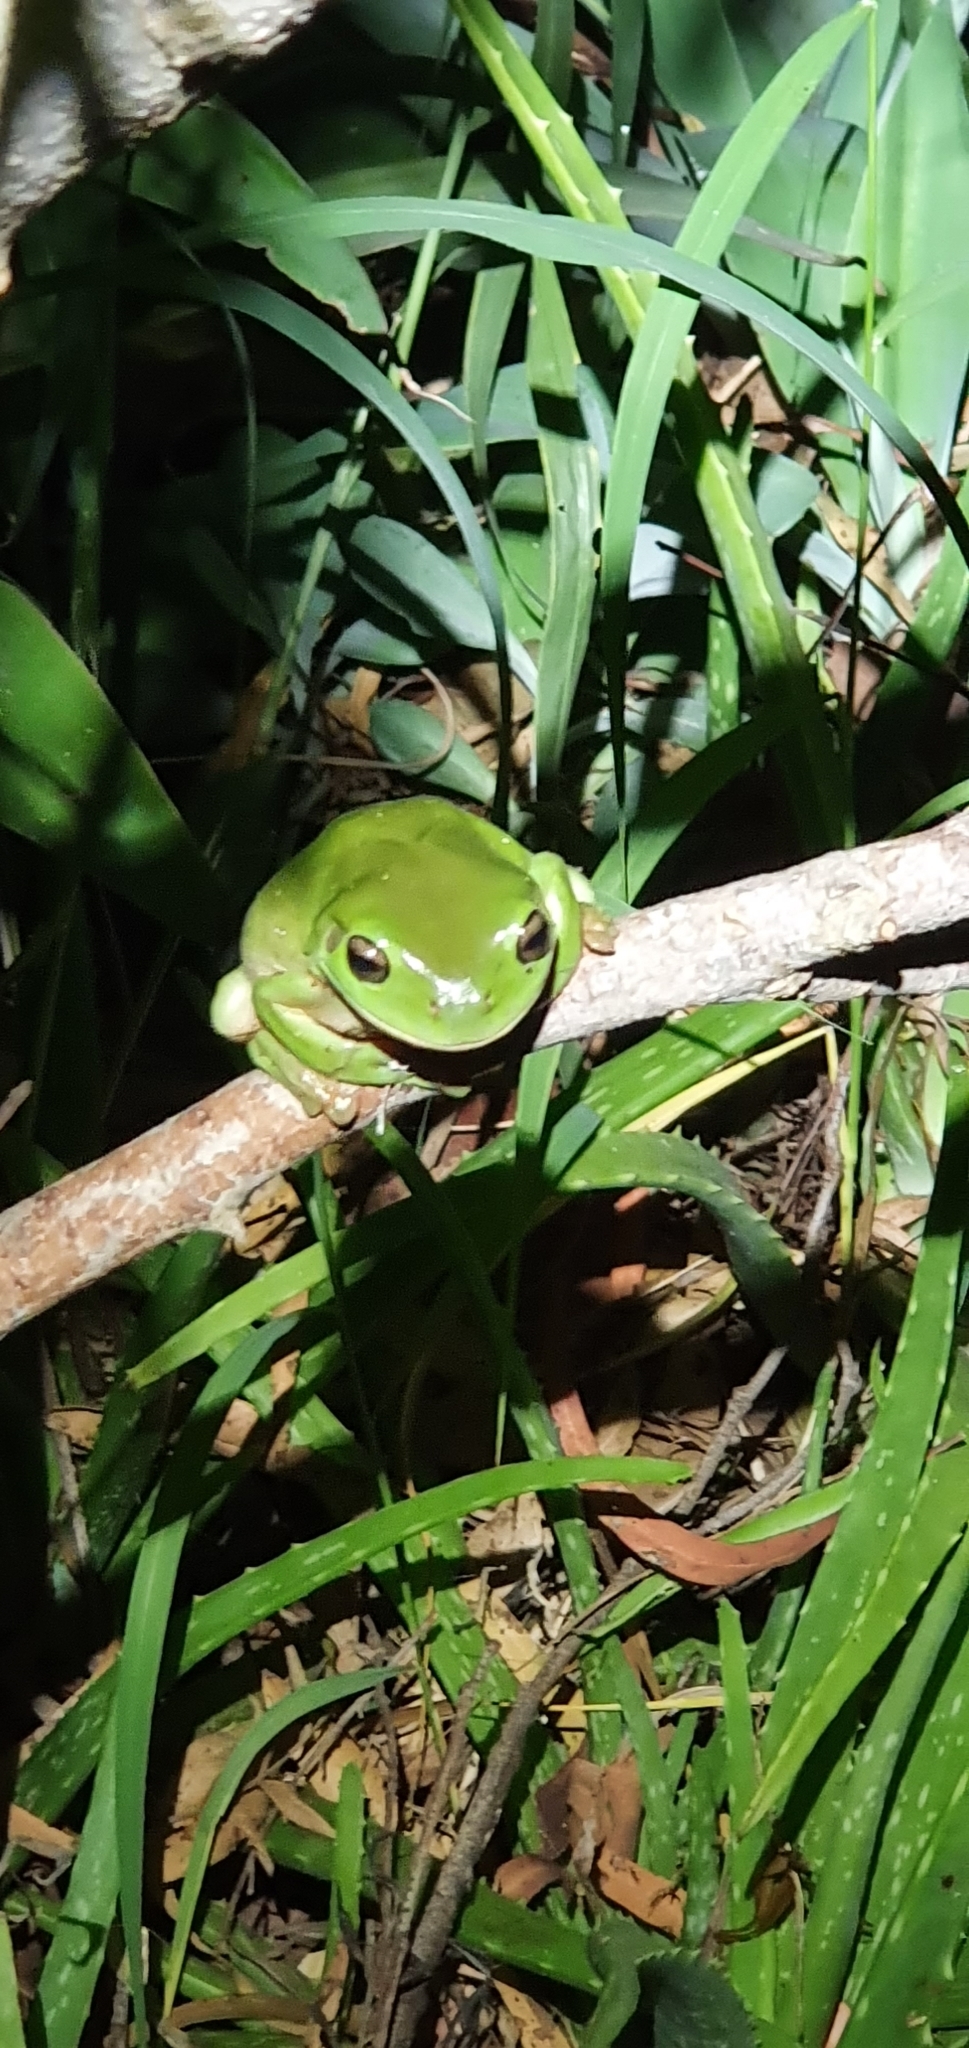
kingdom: Animalia
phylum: Chordata
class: Amphibia
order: Anura
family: Pelodryadidae
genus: Ranoidea
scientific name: Ranoidea caerulea
